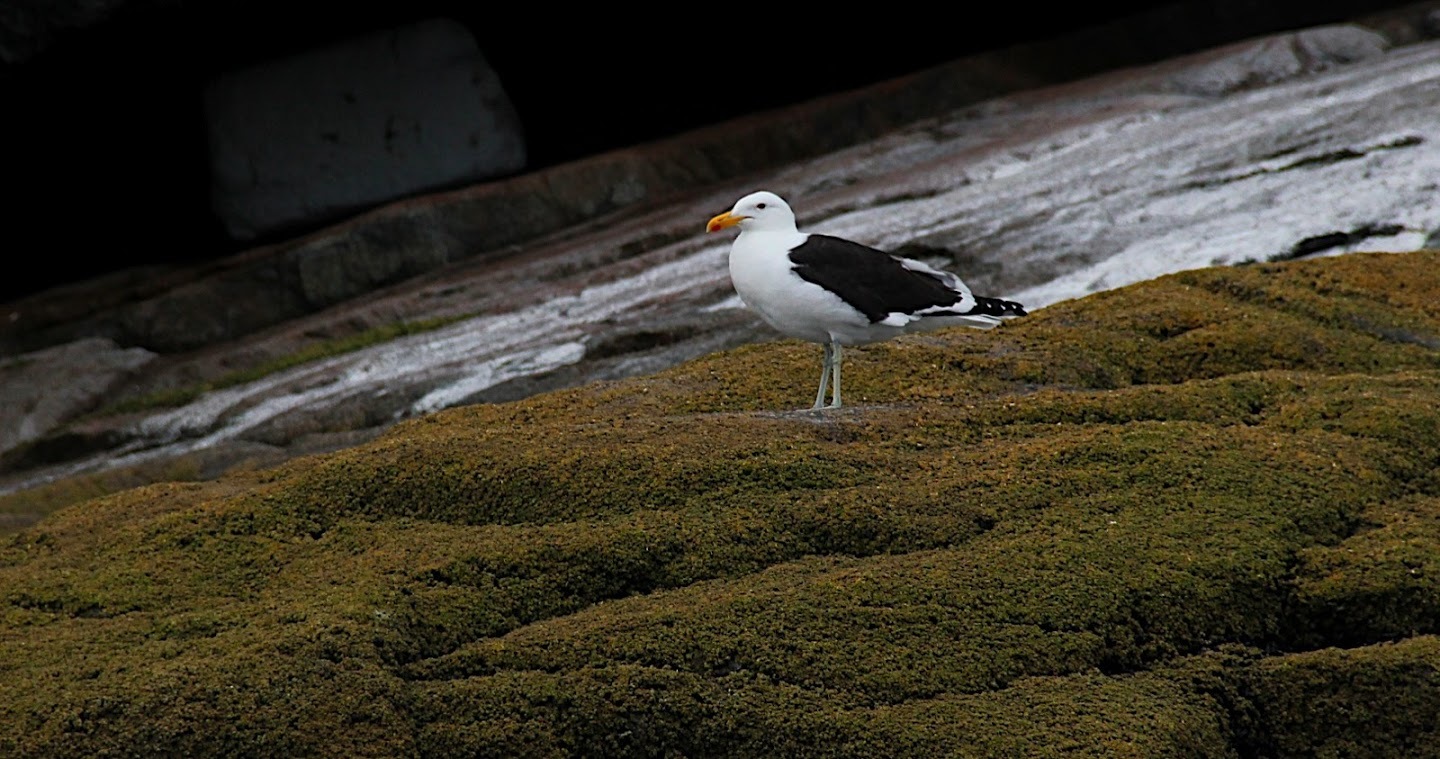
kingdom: Animalia
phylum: Chordata
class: Aves
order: Charadriiformes
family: Laridae
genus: Larus
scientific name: Larus dominicanus
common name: Kelp gull
